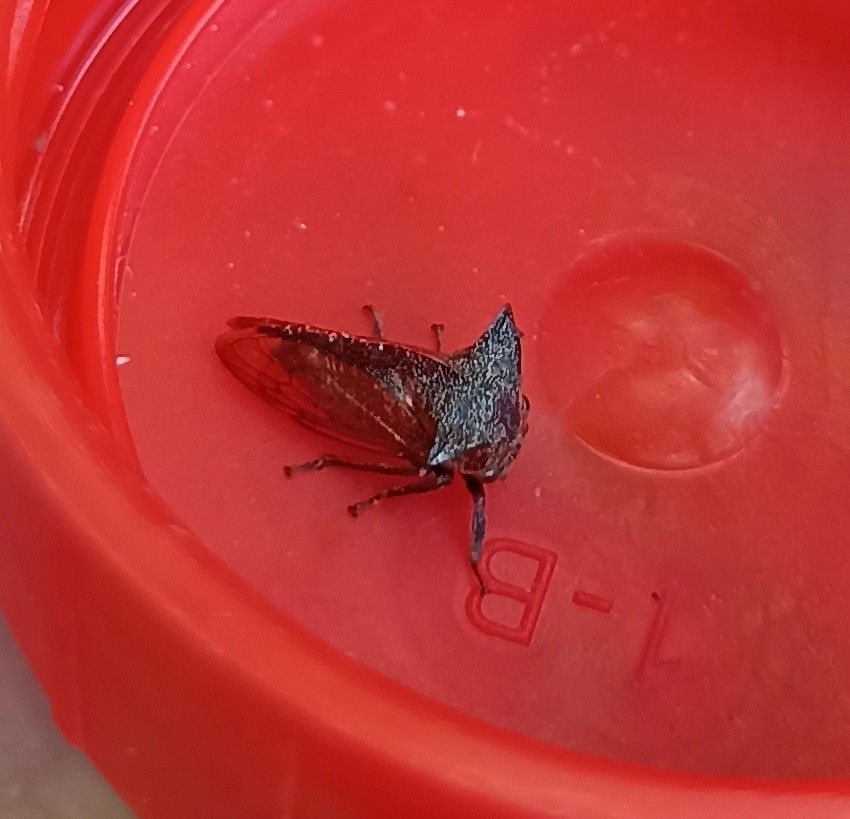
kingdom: Animalia
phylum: Arthropoda
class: Insecta
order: Hemiptera
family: Membracidae
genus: Centrotus
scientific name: Centrotus cornuta
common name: Treehopper
